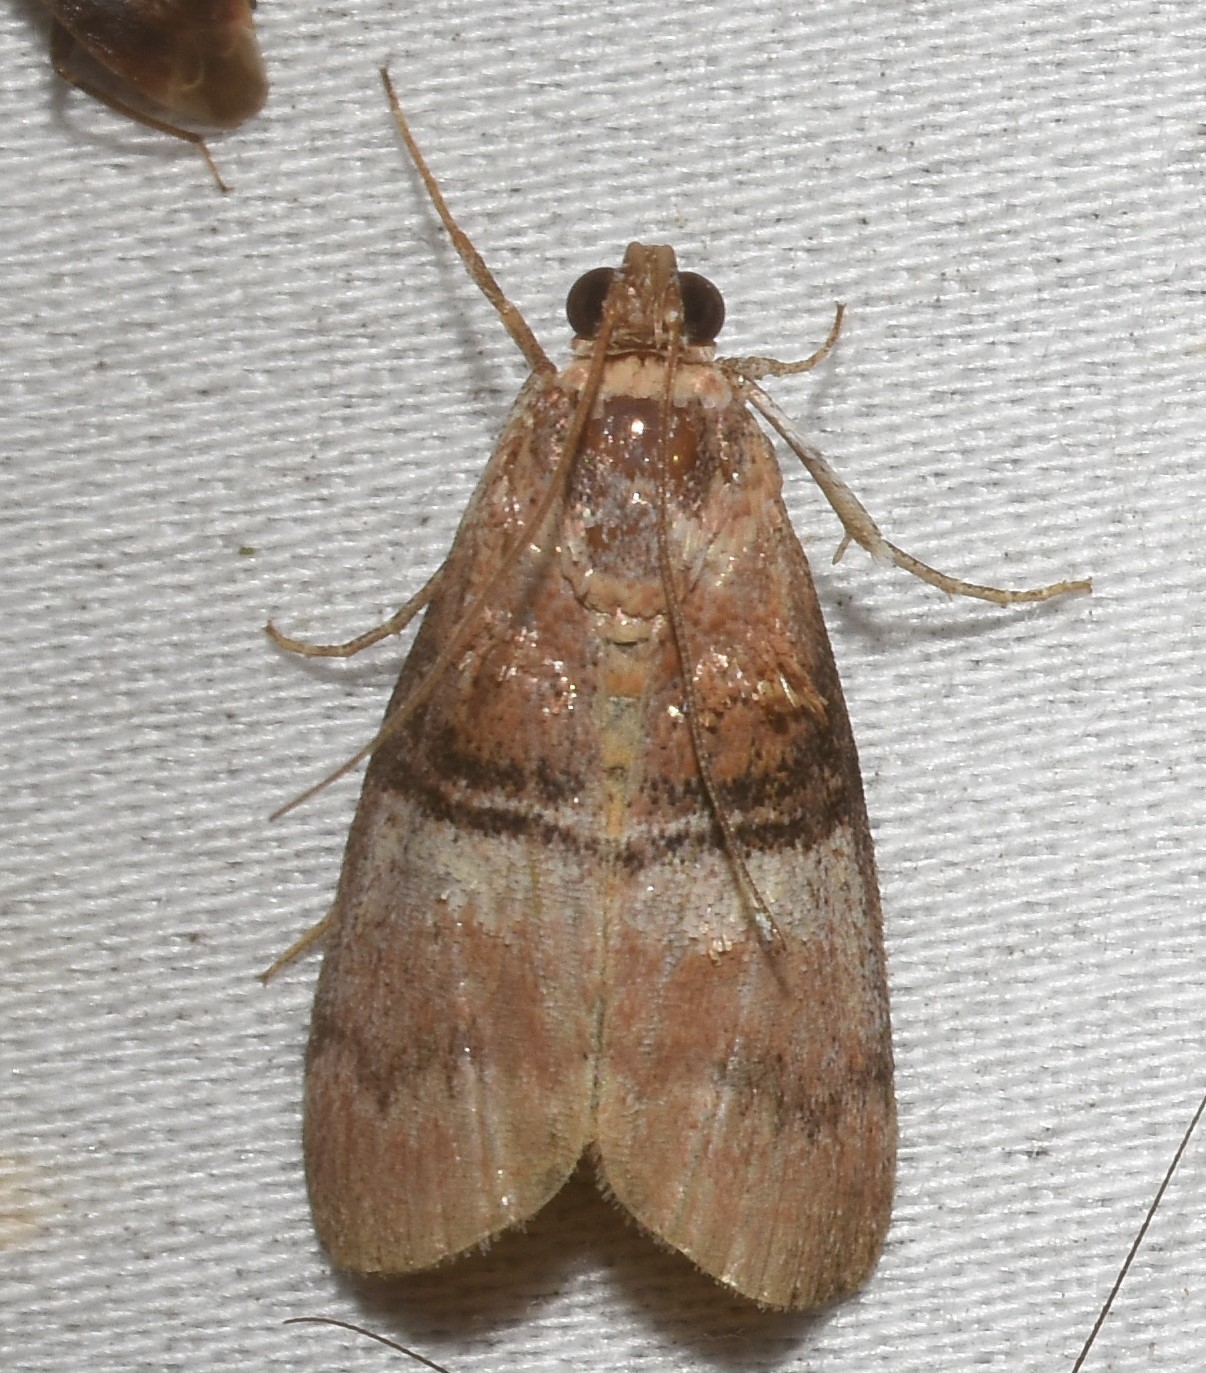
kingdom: Animalia
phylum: Arthropoda
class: Insecta
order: Lepidoptera
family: Pyralidae
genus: Pococera
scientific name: Pococera militella
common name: Sycamore webworm moth
